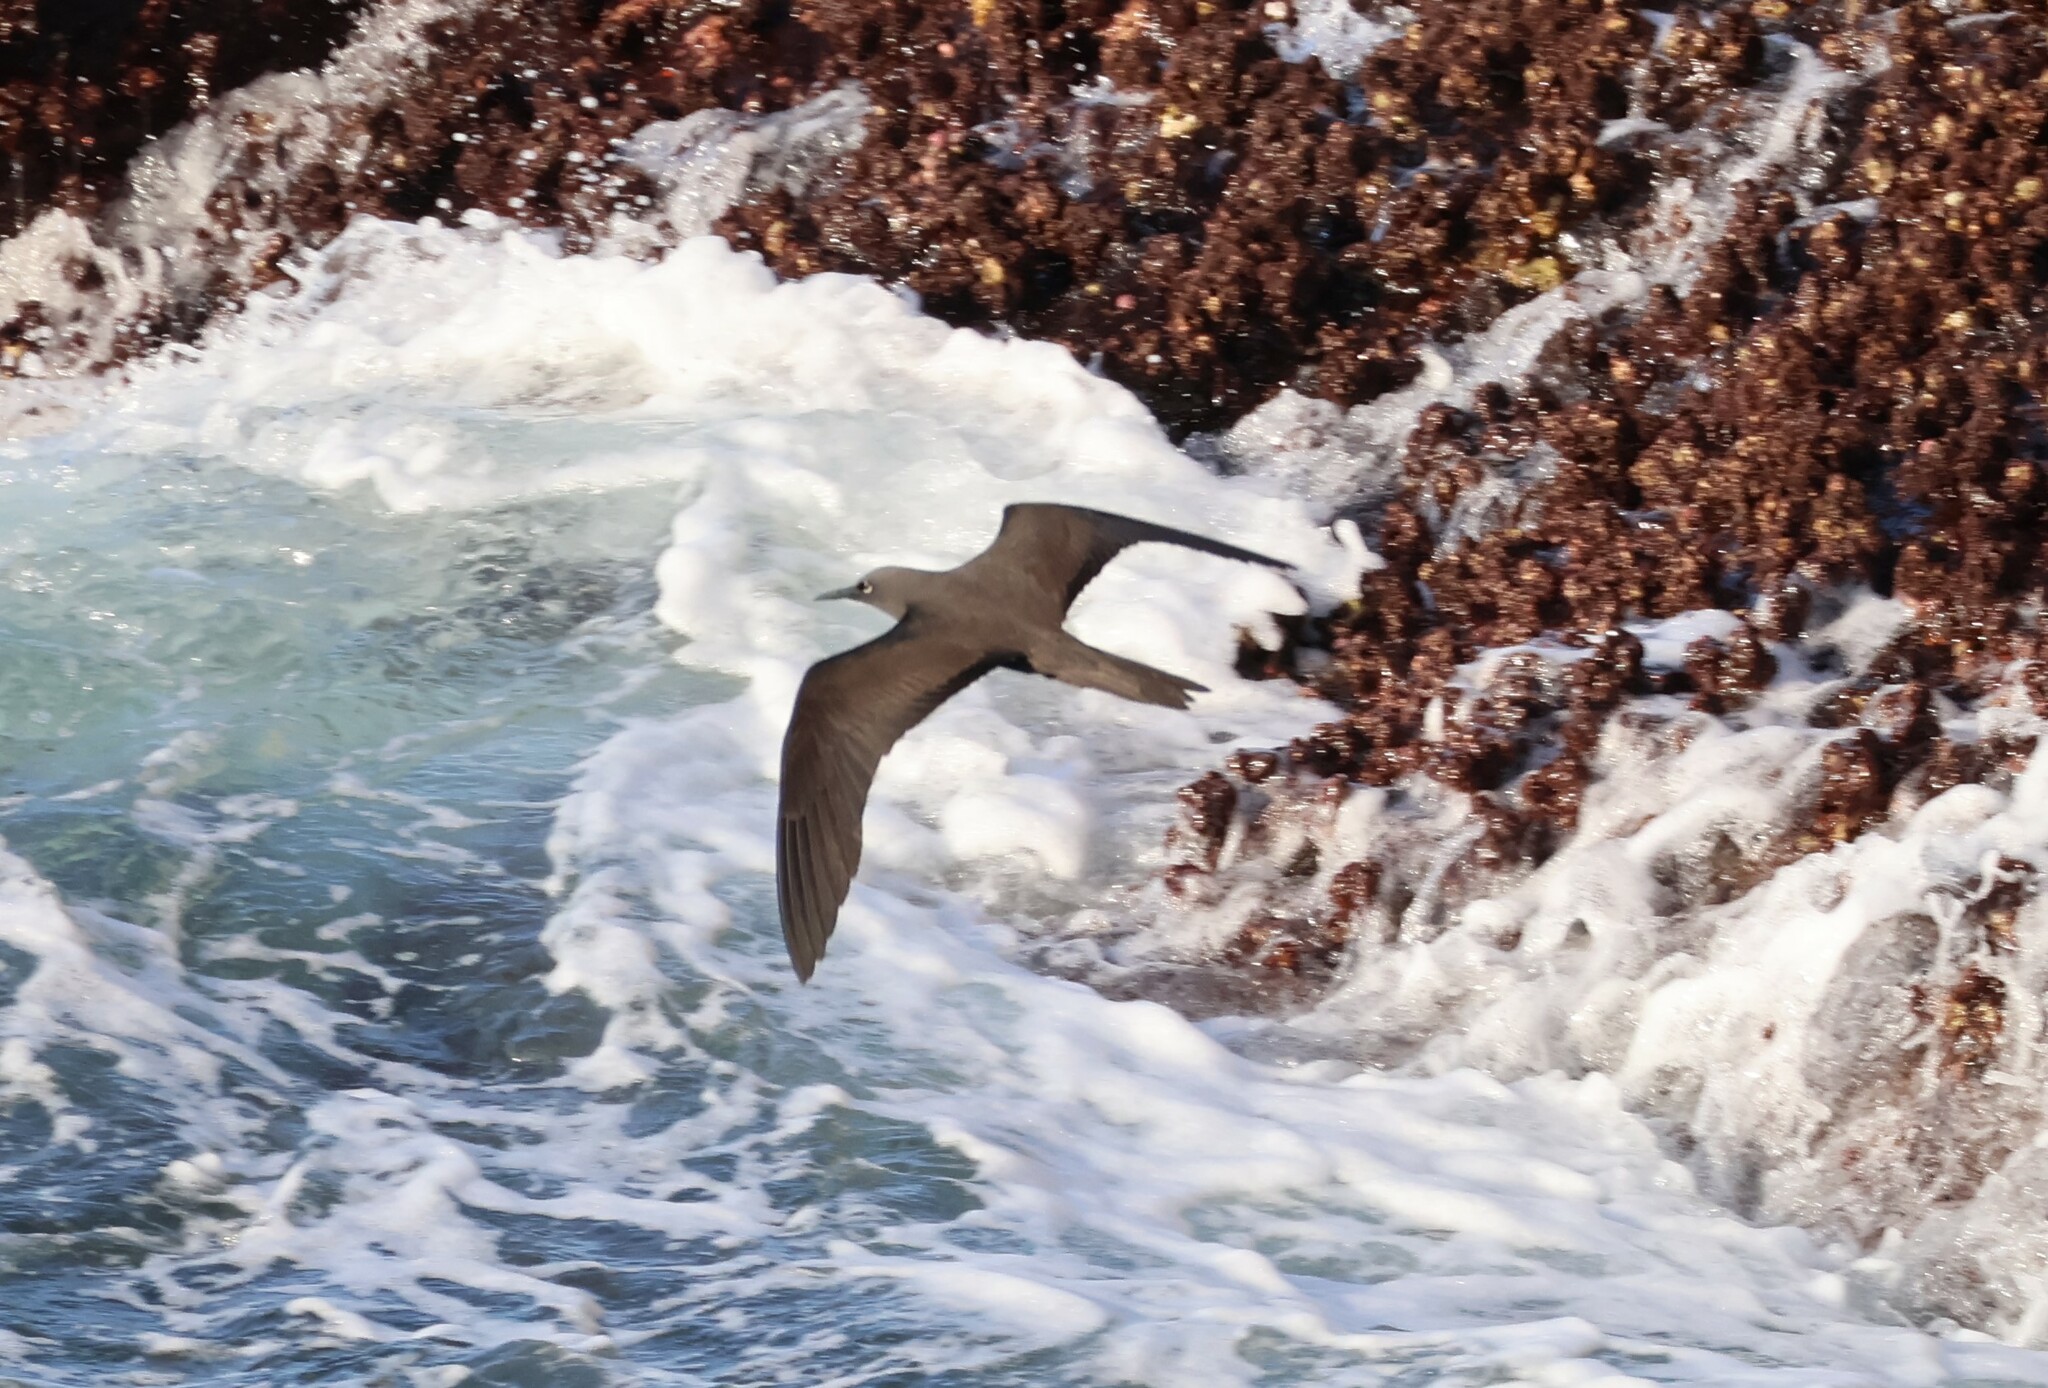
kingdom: Animalia
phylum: Chordata
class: Aves
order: Charadriiformes
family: Laridae
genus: Anous
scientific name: Anous stolidus
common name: Brown noddy
